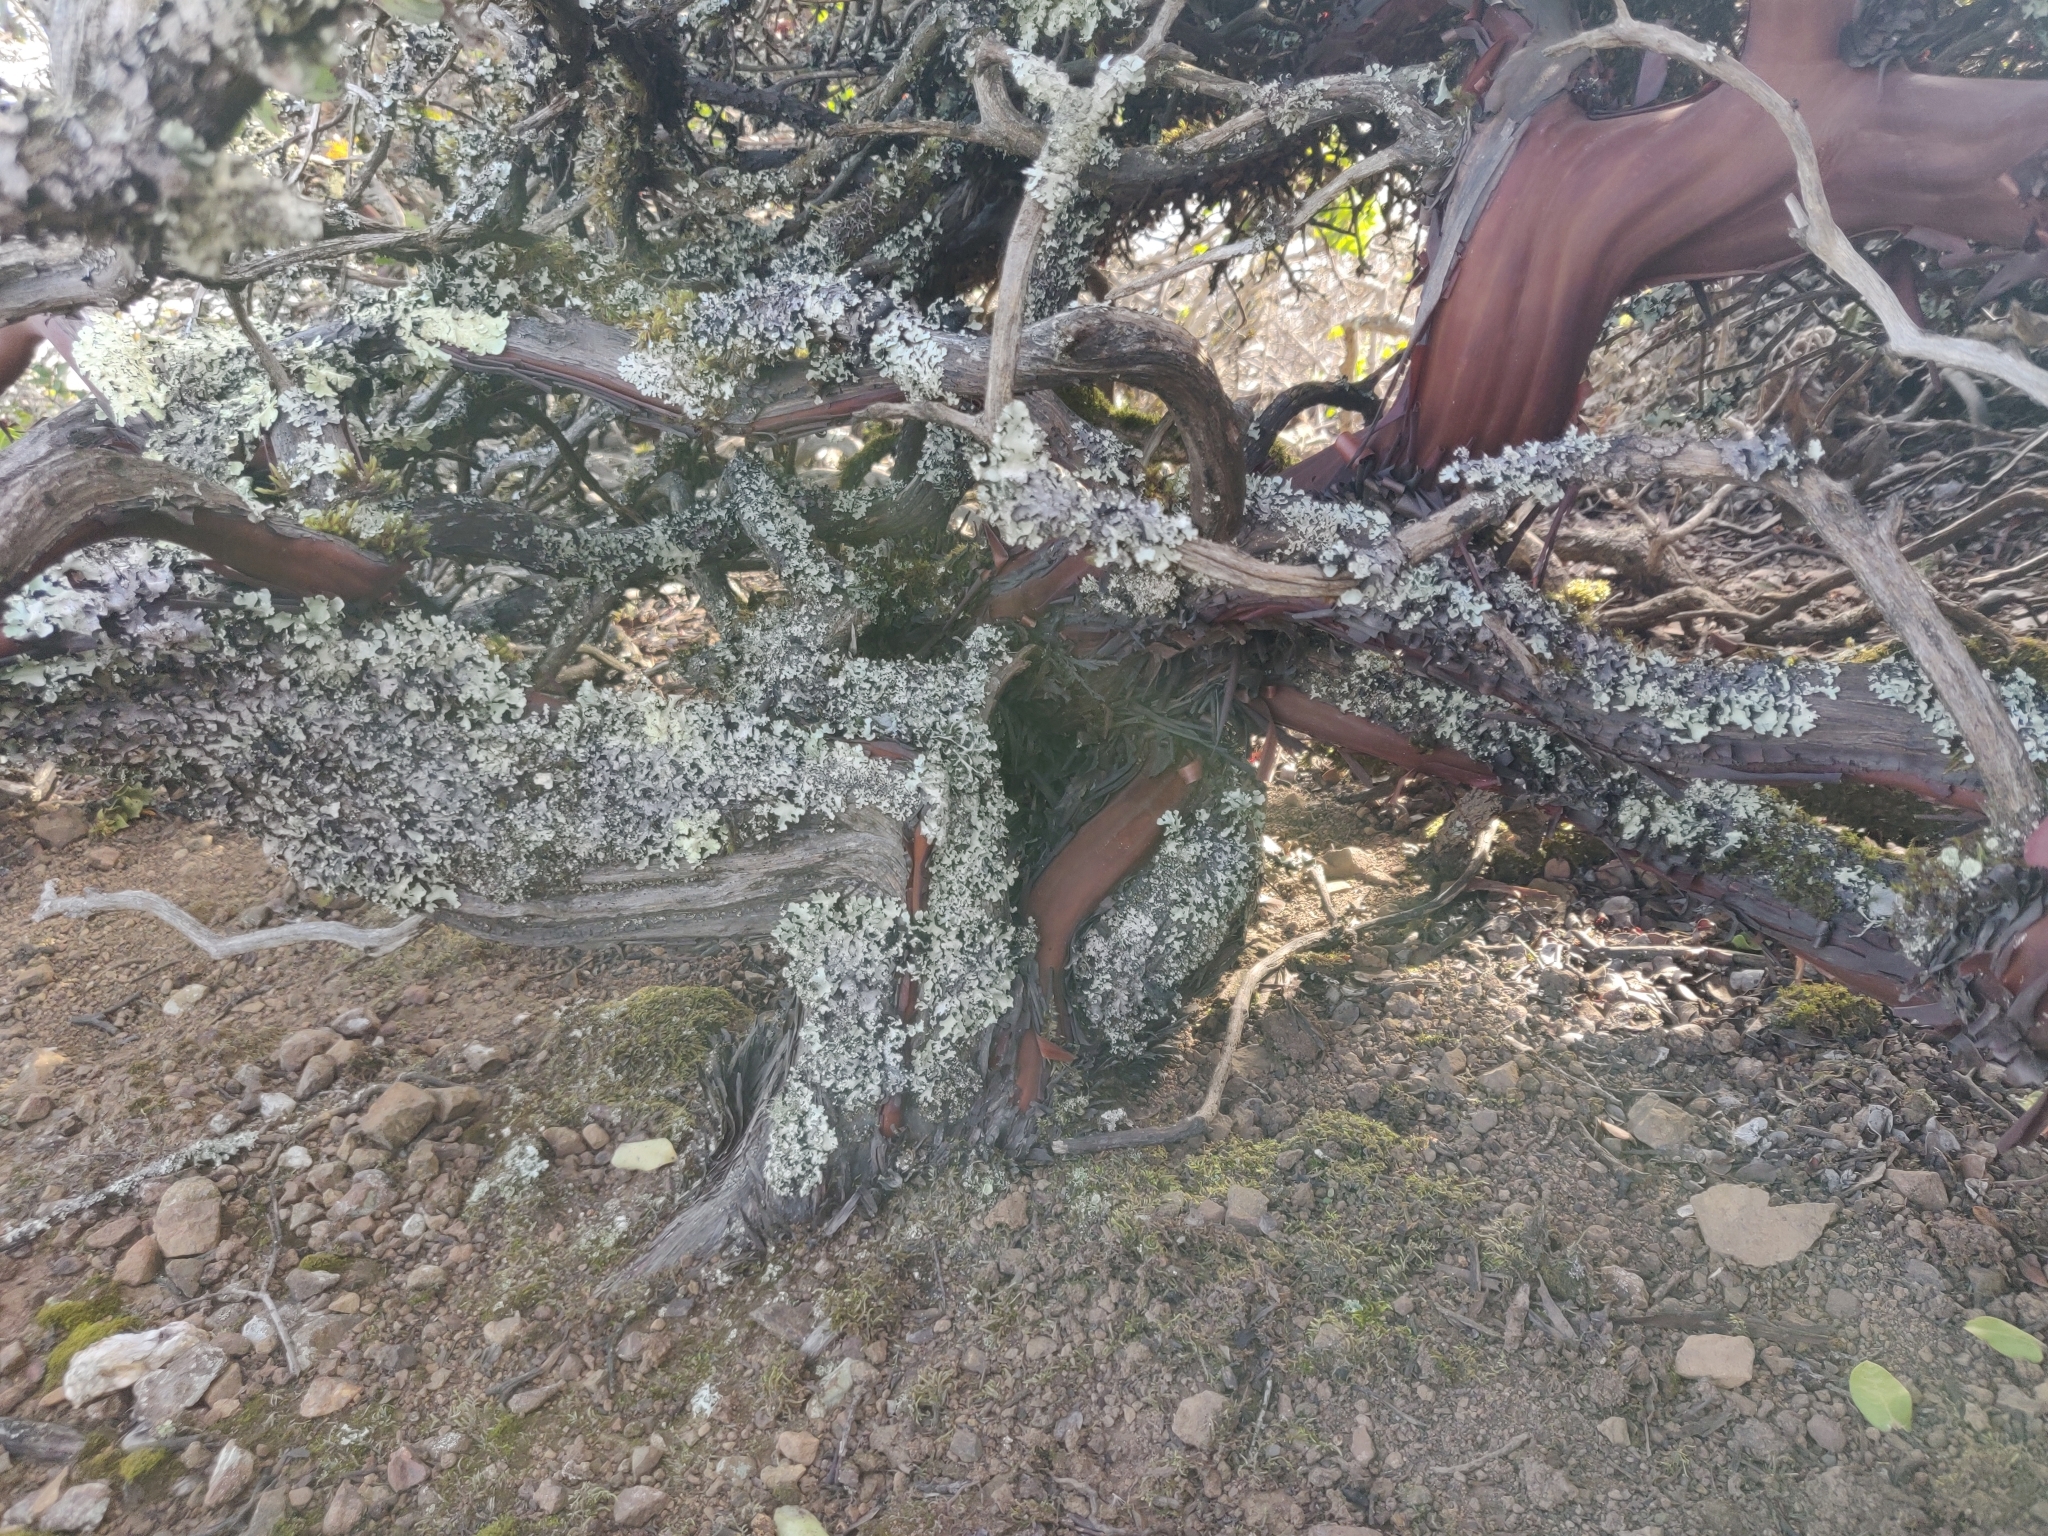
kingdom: Plantae
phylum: Tracheophyta
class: Magnoliopsida
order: Ericales
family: Ericaceae
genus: Arctostaphylos
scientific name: Arctostaphylos imbricata
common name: San bruno mountain manzanita
